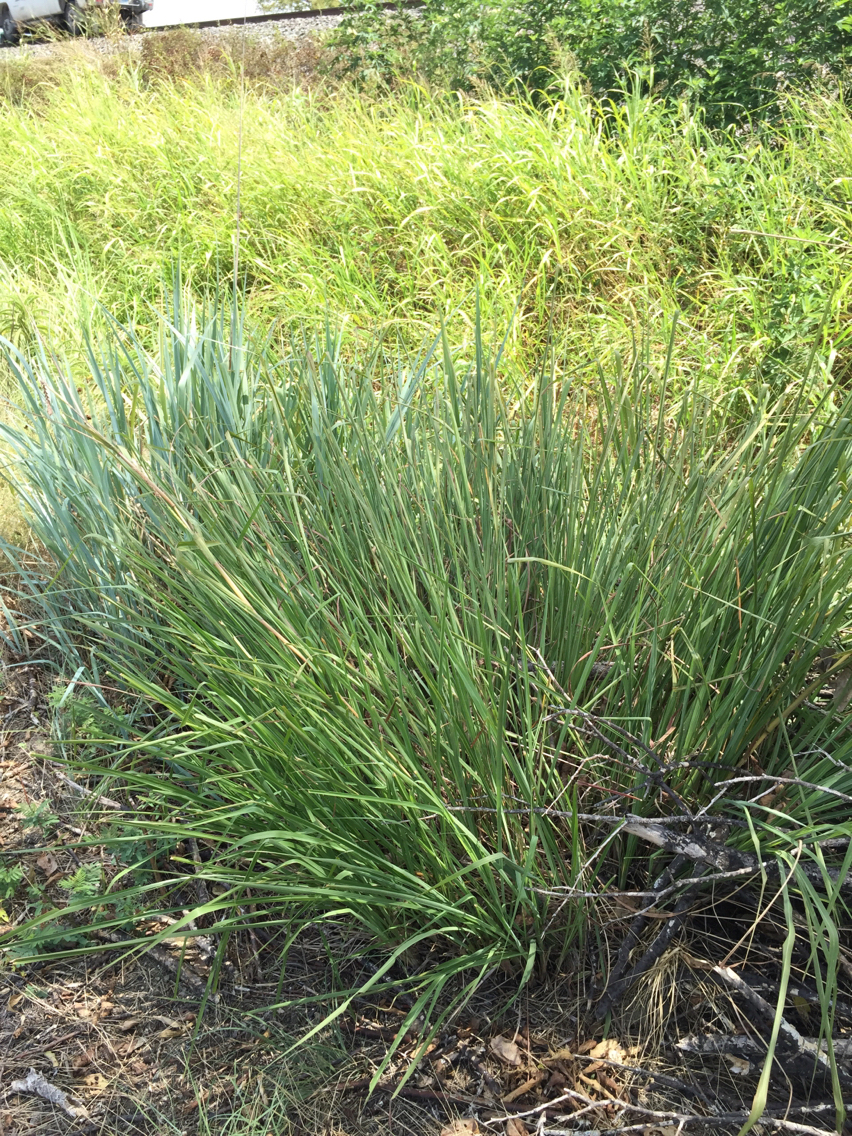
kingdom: Plantae
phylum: Tracheophyta
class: Liliopsida
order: Poales
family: Poaceae
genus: Tripsacum
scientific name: Tripsacum dactyloides
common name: Buffalo-grass
